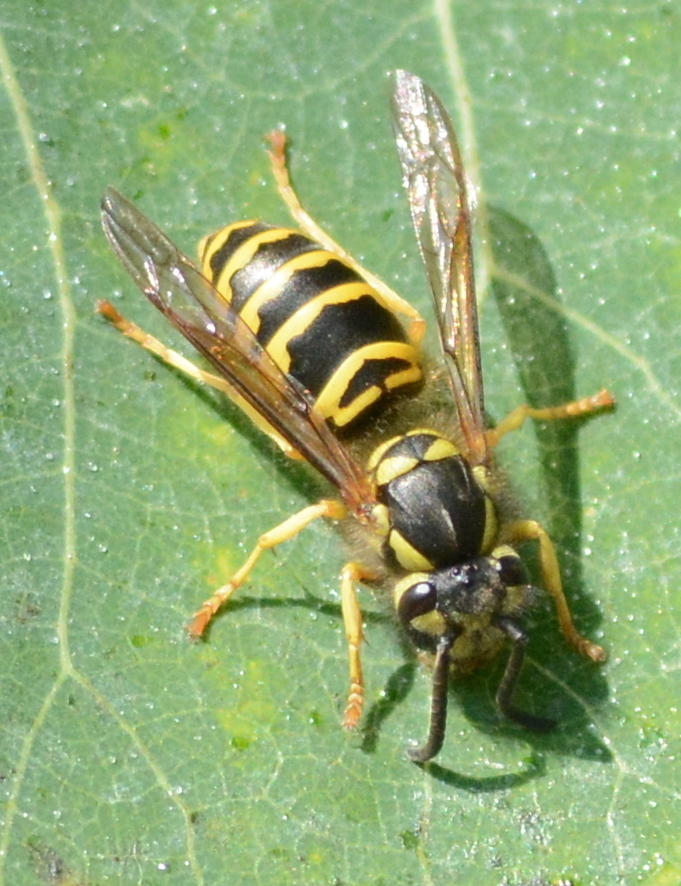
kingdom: Animalia
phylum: Arthropoda
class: Insecta
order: Hymenoptera
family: Vespidae
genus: Vespula
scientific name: Vespula maculifrons
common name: Eastern yellowjacket
